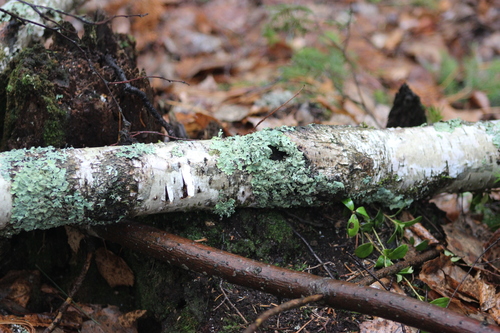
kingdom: Fungi
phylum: Ascomycota
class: Lecanoromycetes
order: Lecanorales
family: Parmeliaceae
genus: Parmelia
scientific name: Parmelia sulcata
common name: Netted shield lichen
